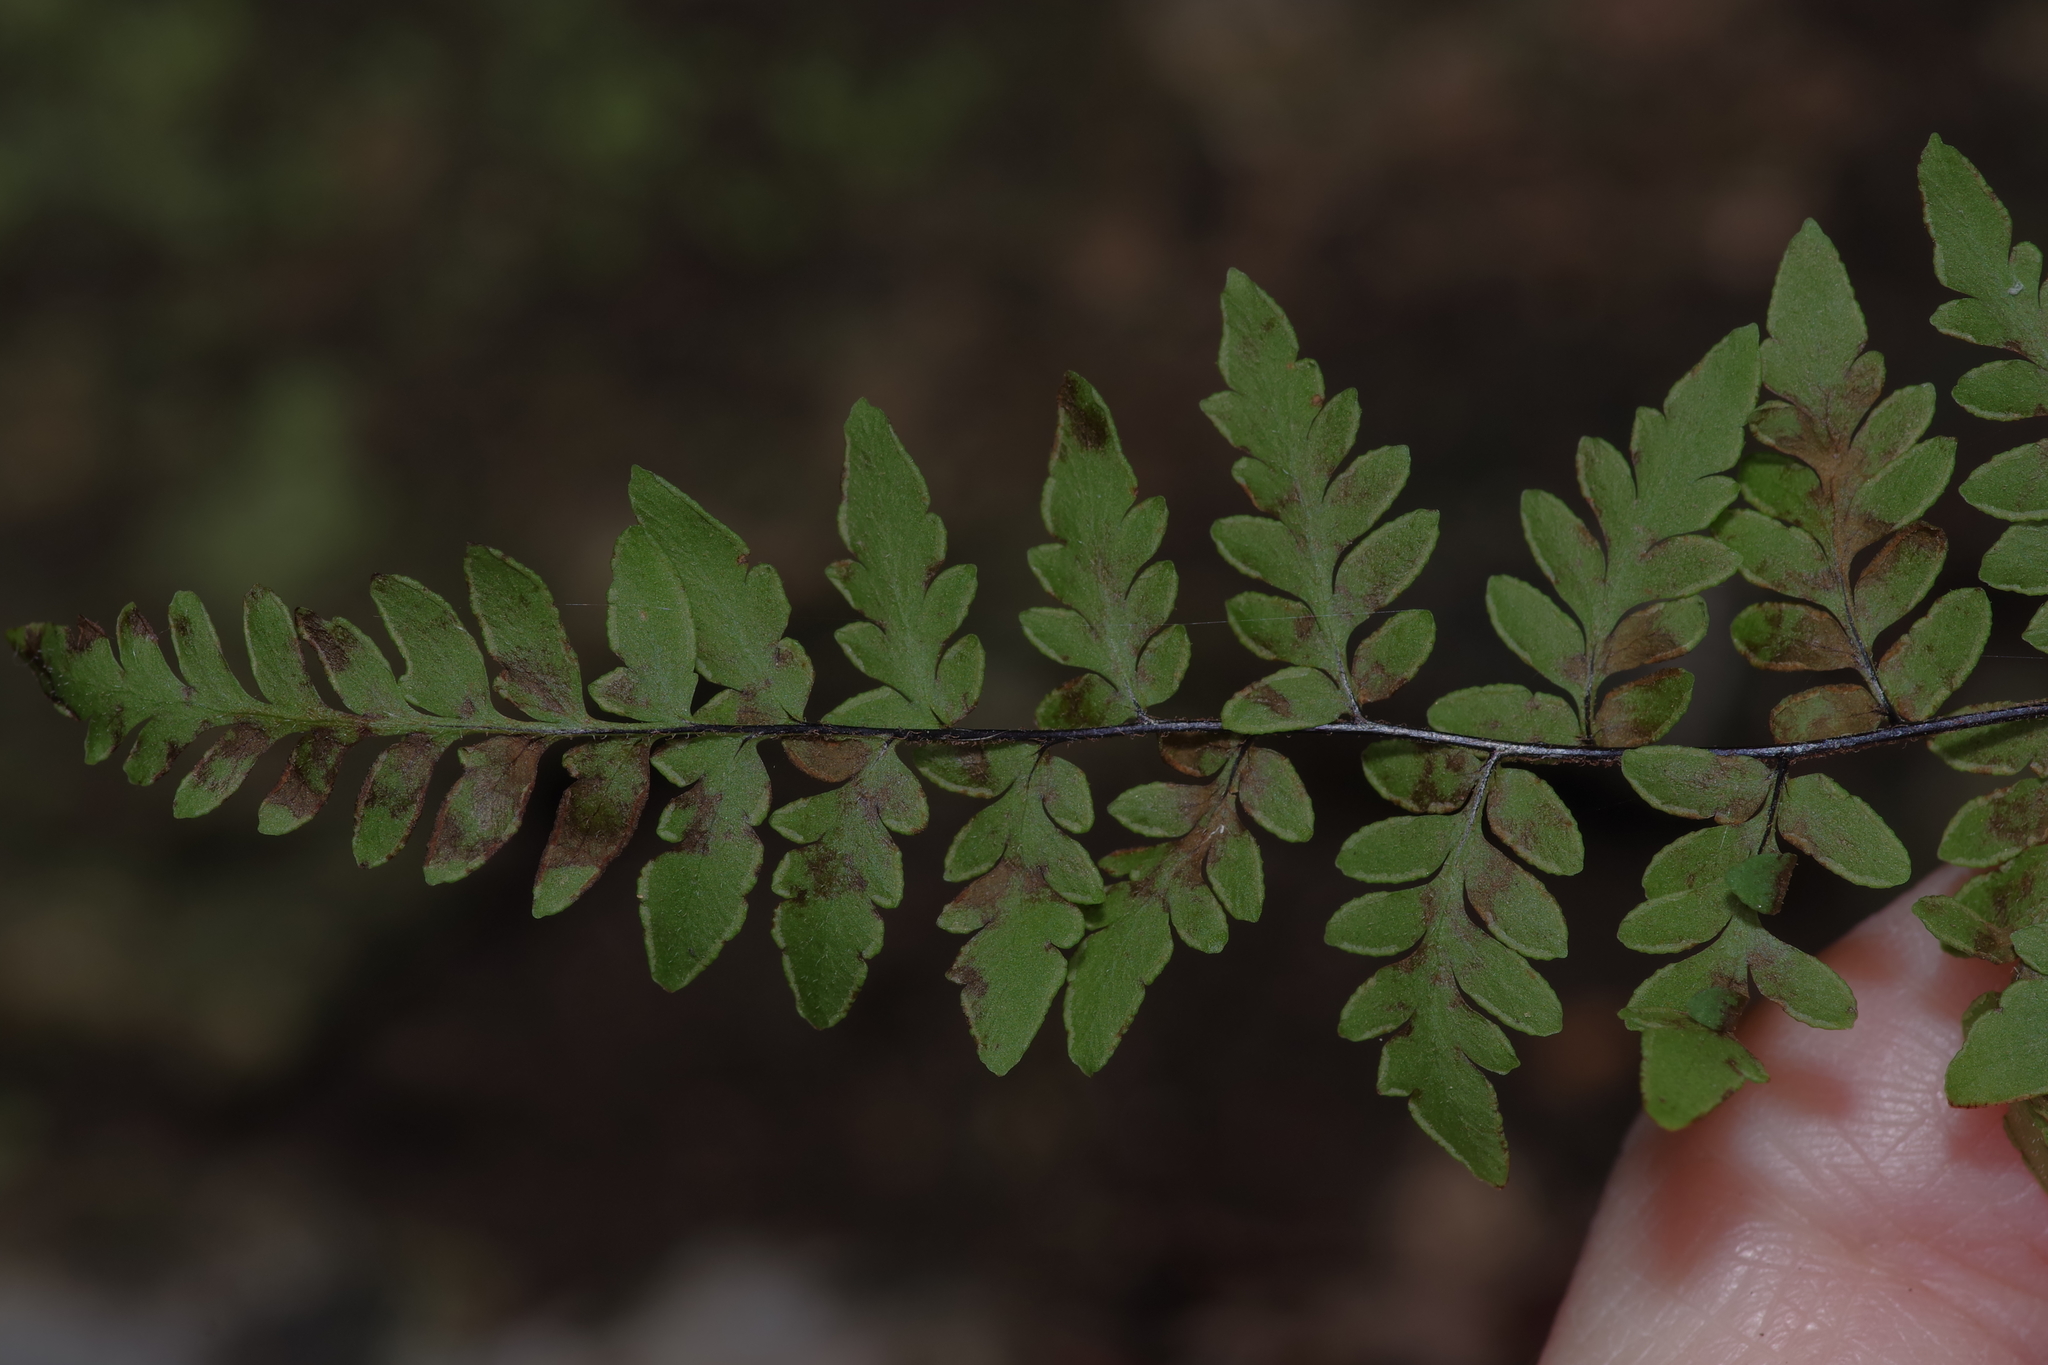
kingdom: Plantae
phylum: Tracheophyta
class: Polypodiopsida
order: Polypodiales
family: Pteridaceae
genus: Myriopteris
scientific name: Myriopteris alabamensis
